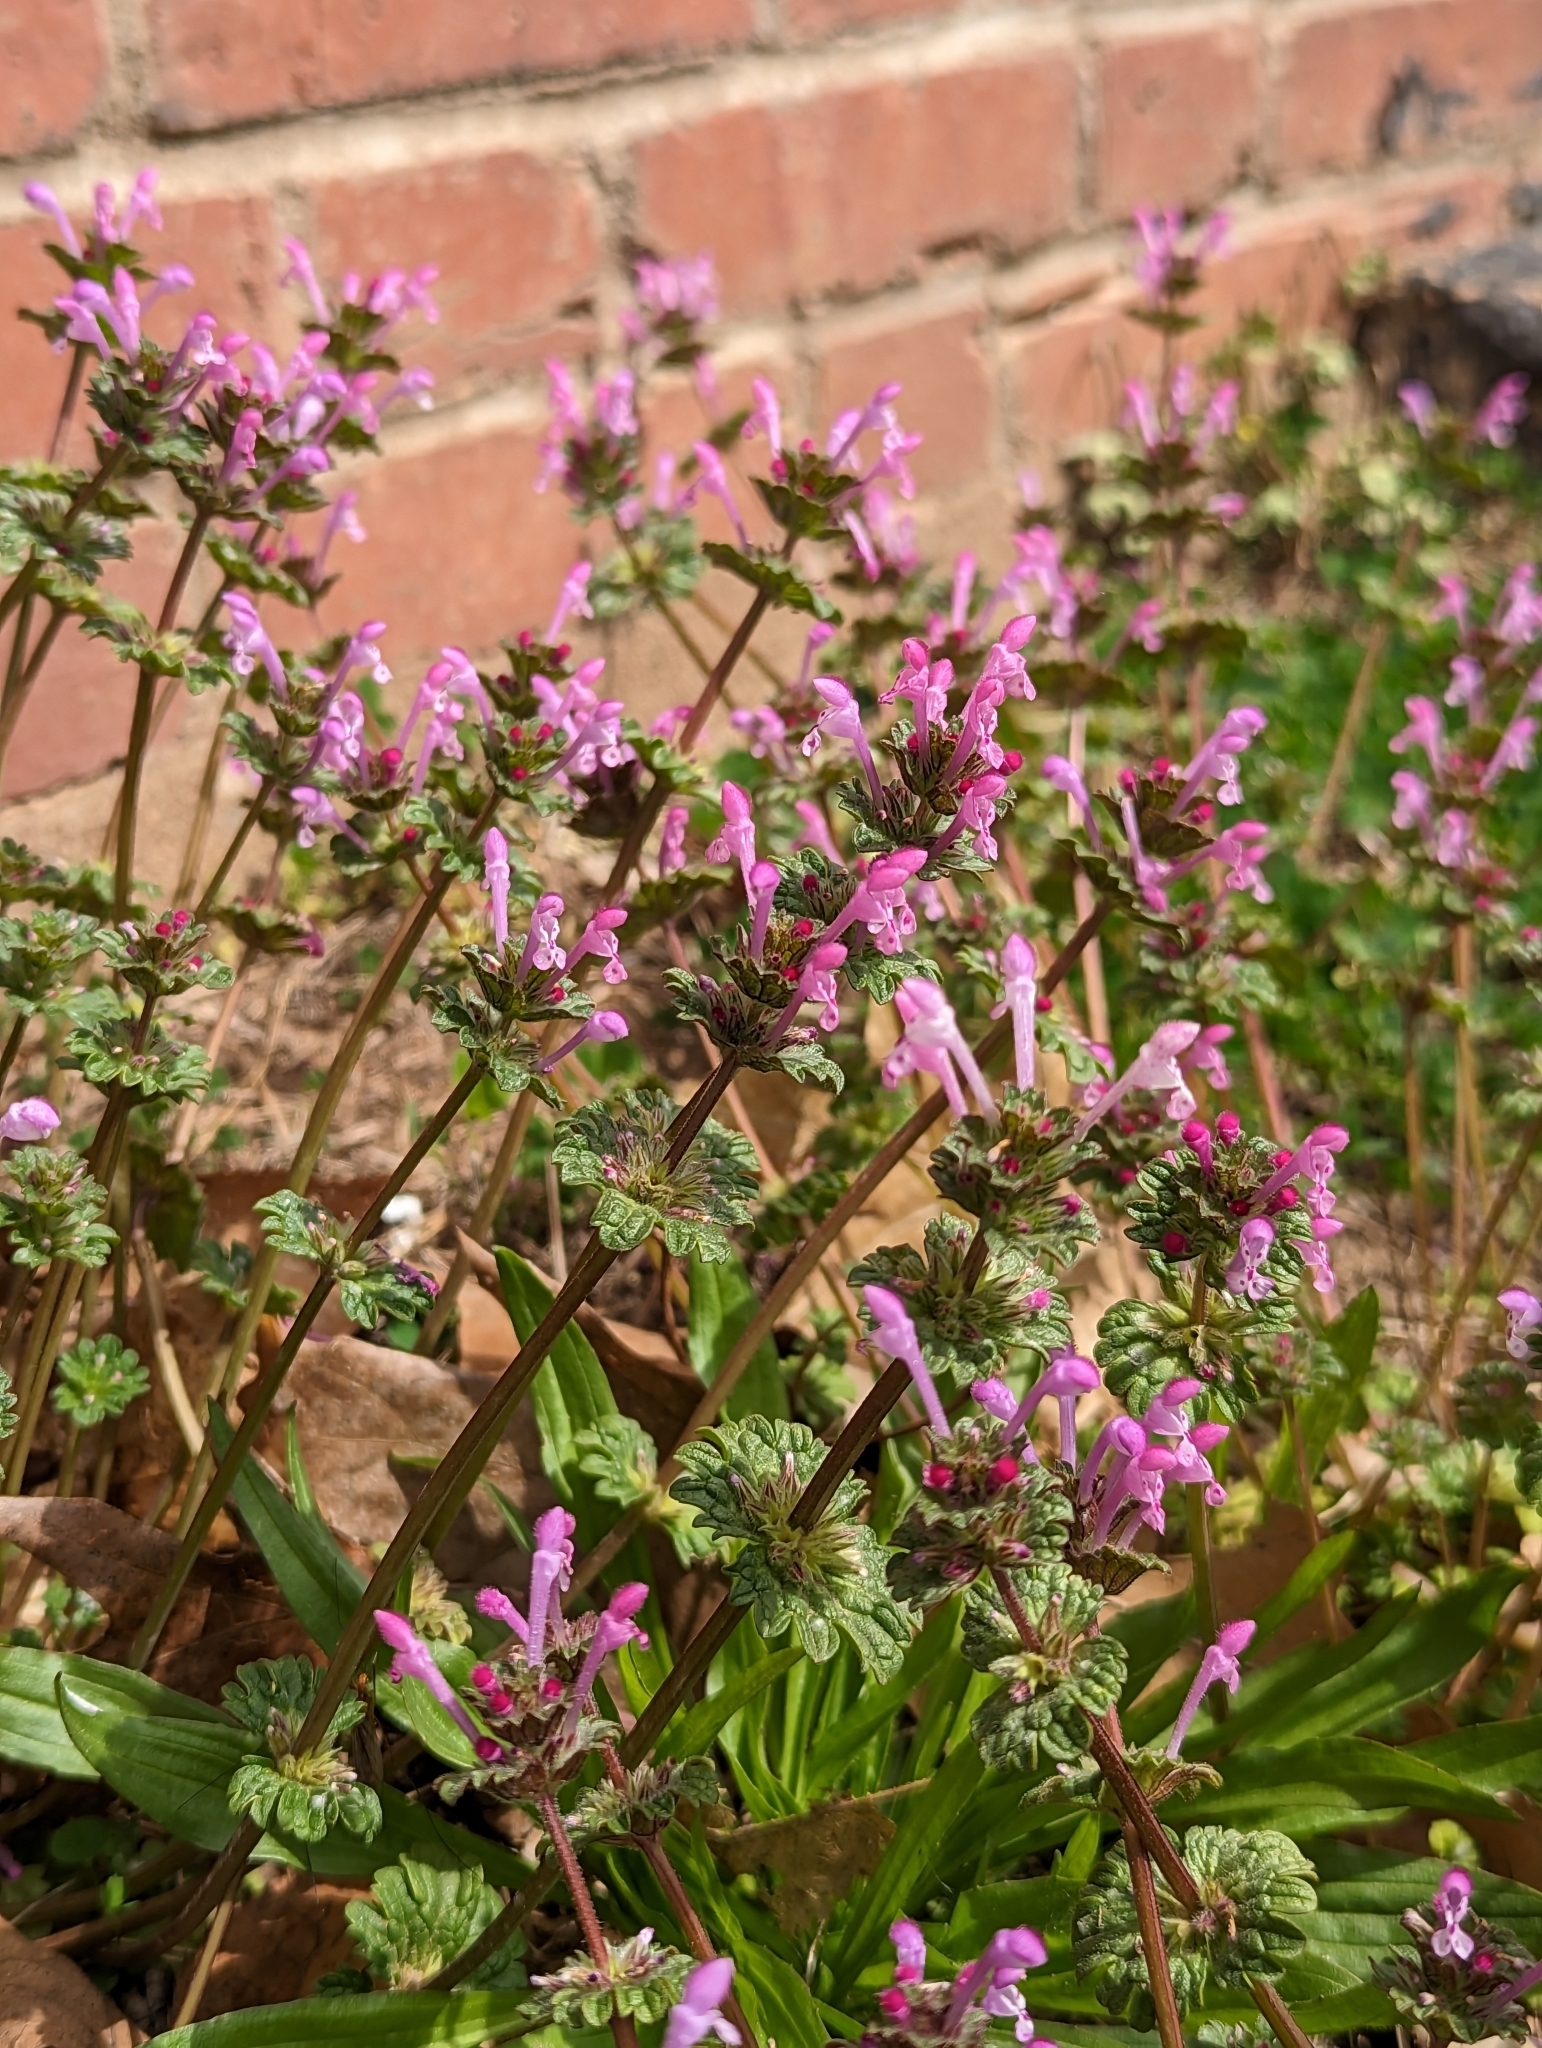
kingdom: Plantae
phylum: Tracheophyta
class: Magnoliopsida
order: Lamiales
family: Lamiaceae
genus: Lamium
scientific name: Lamium amplexicaule
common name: Henbit dead-nettle
